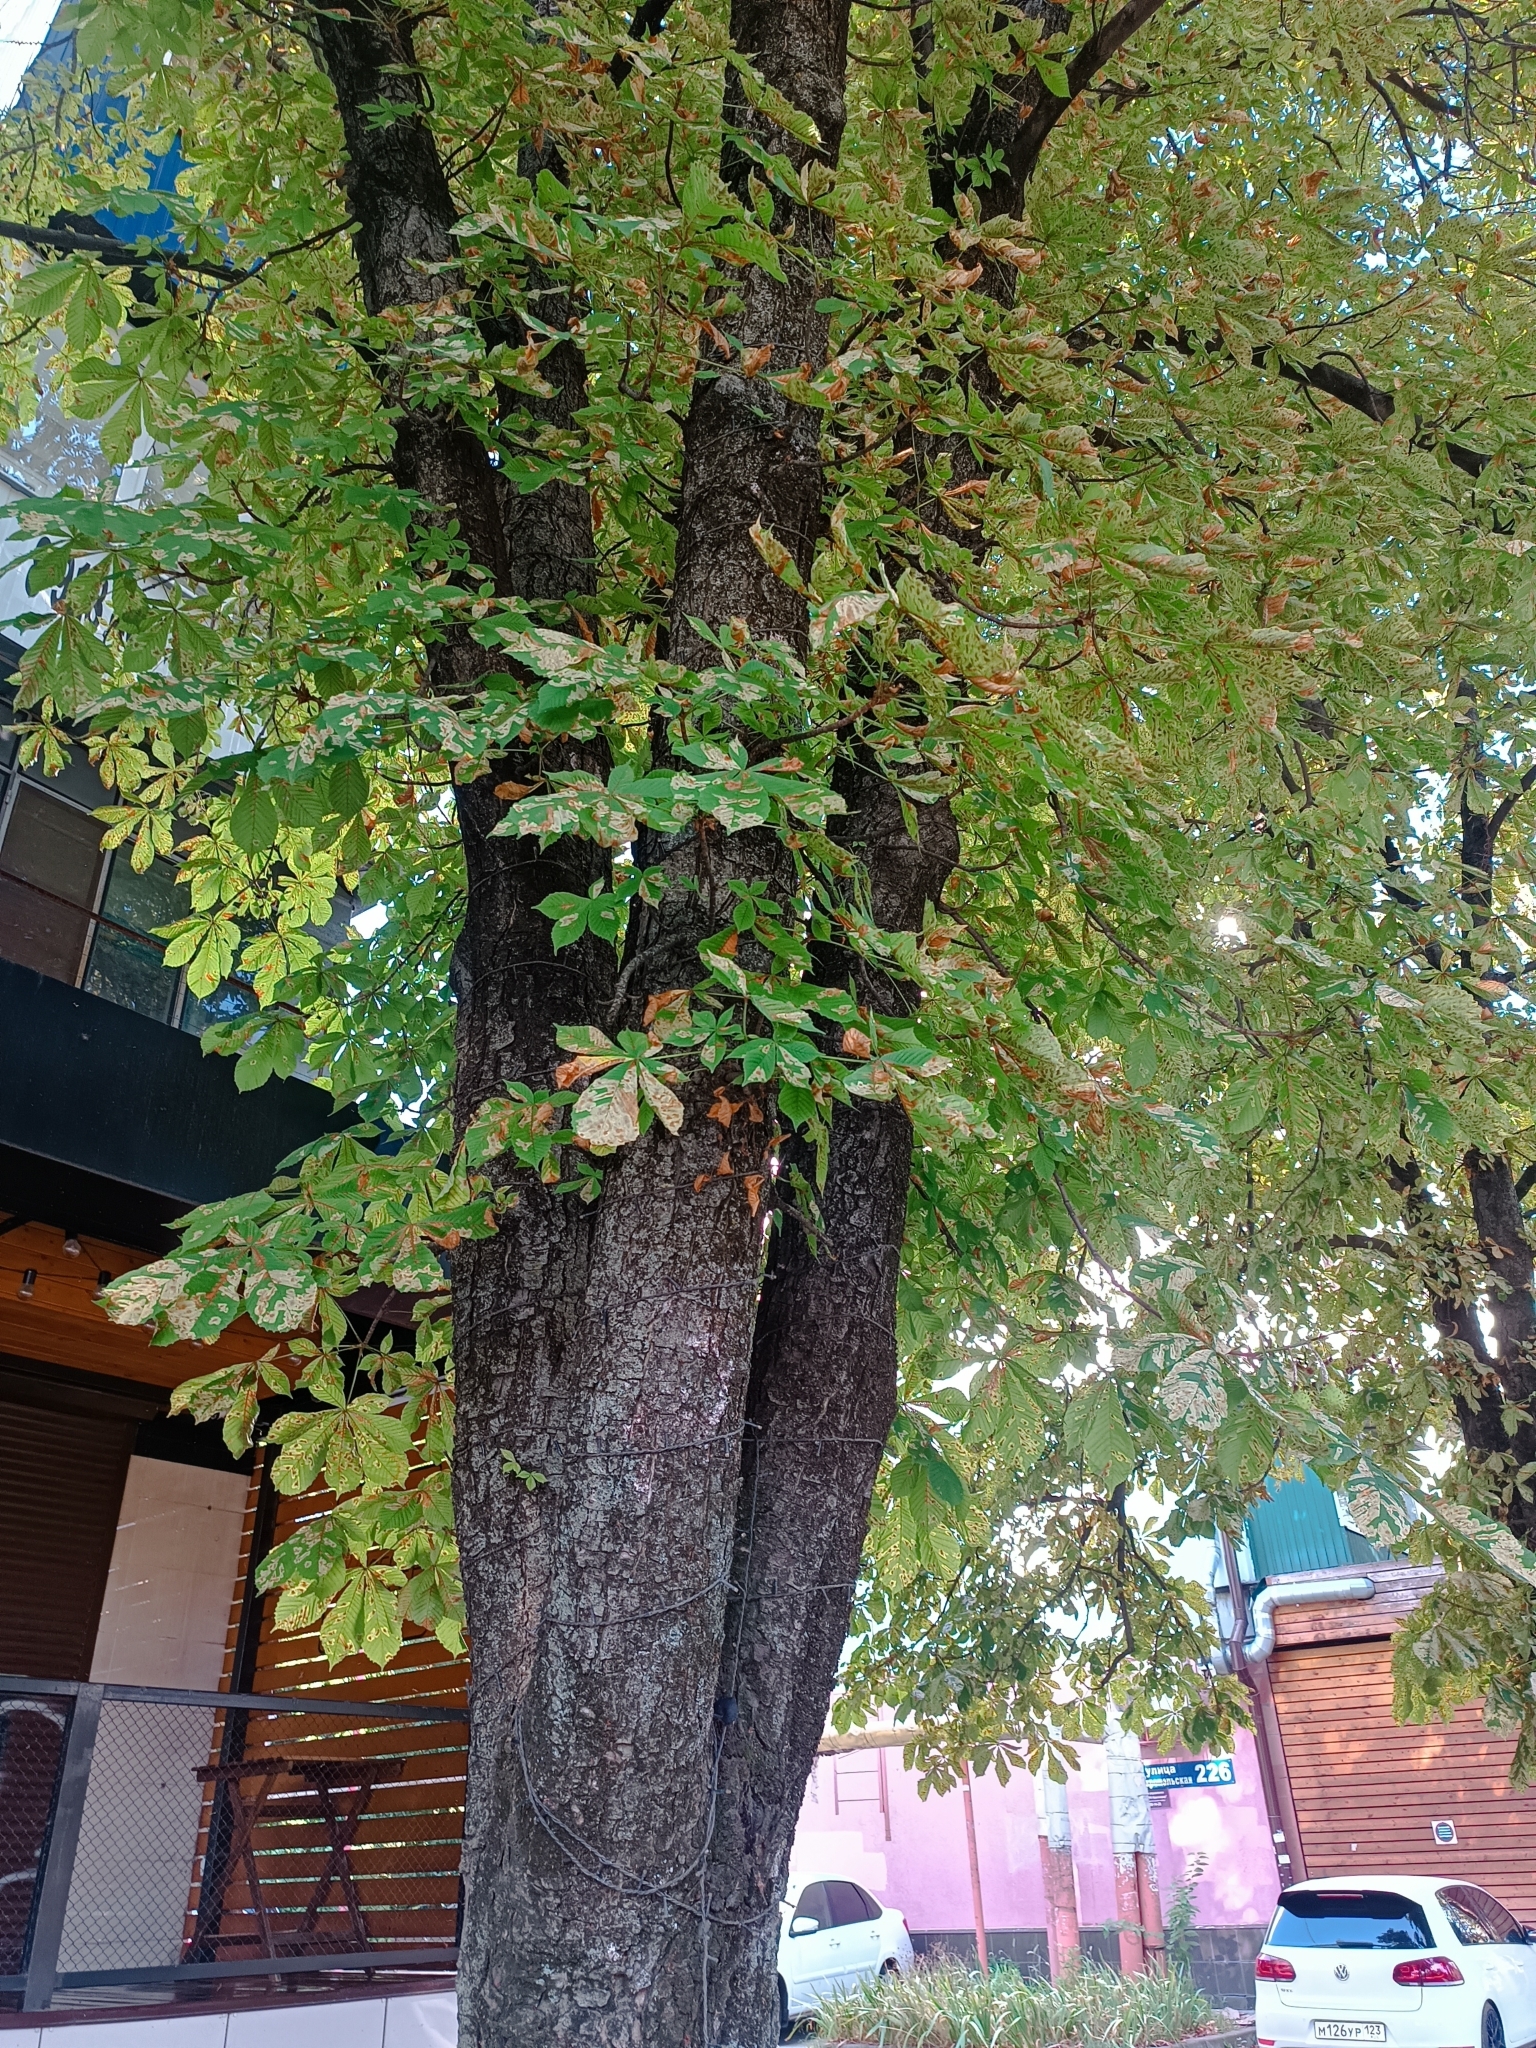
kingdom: Animalia
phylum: Arthropoda
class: Insecta
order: Lepidoptera
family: Gracillariidae
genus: Cameraria
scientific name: Cameraria ohridella
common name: Horse-chestnut leaf-miner
